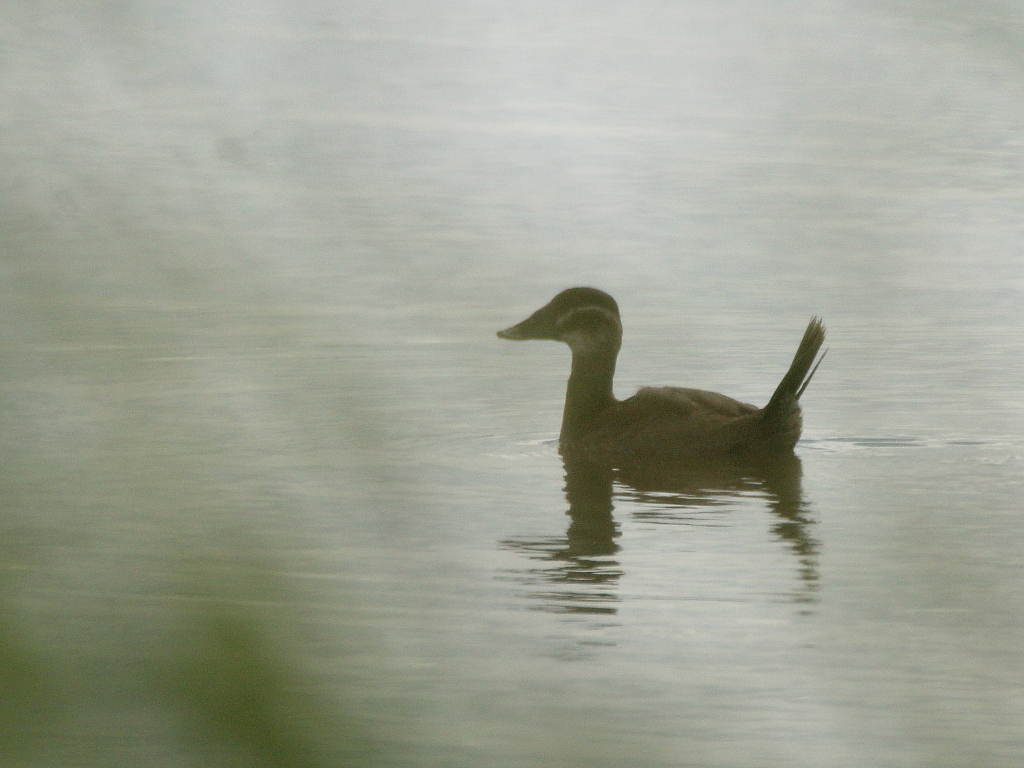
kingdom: Animalia
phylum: Chordata
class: Aves
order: Anseriformes
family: Anatidae
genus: Oxyura
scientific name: Oxyura leucocephala
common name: White-headed duck
